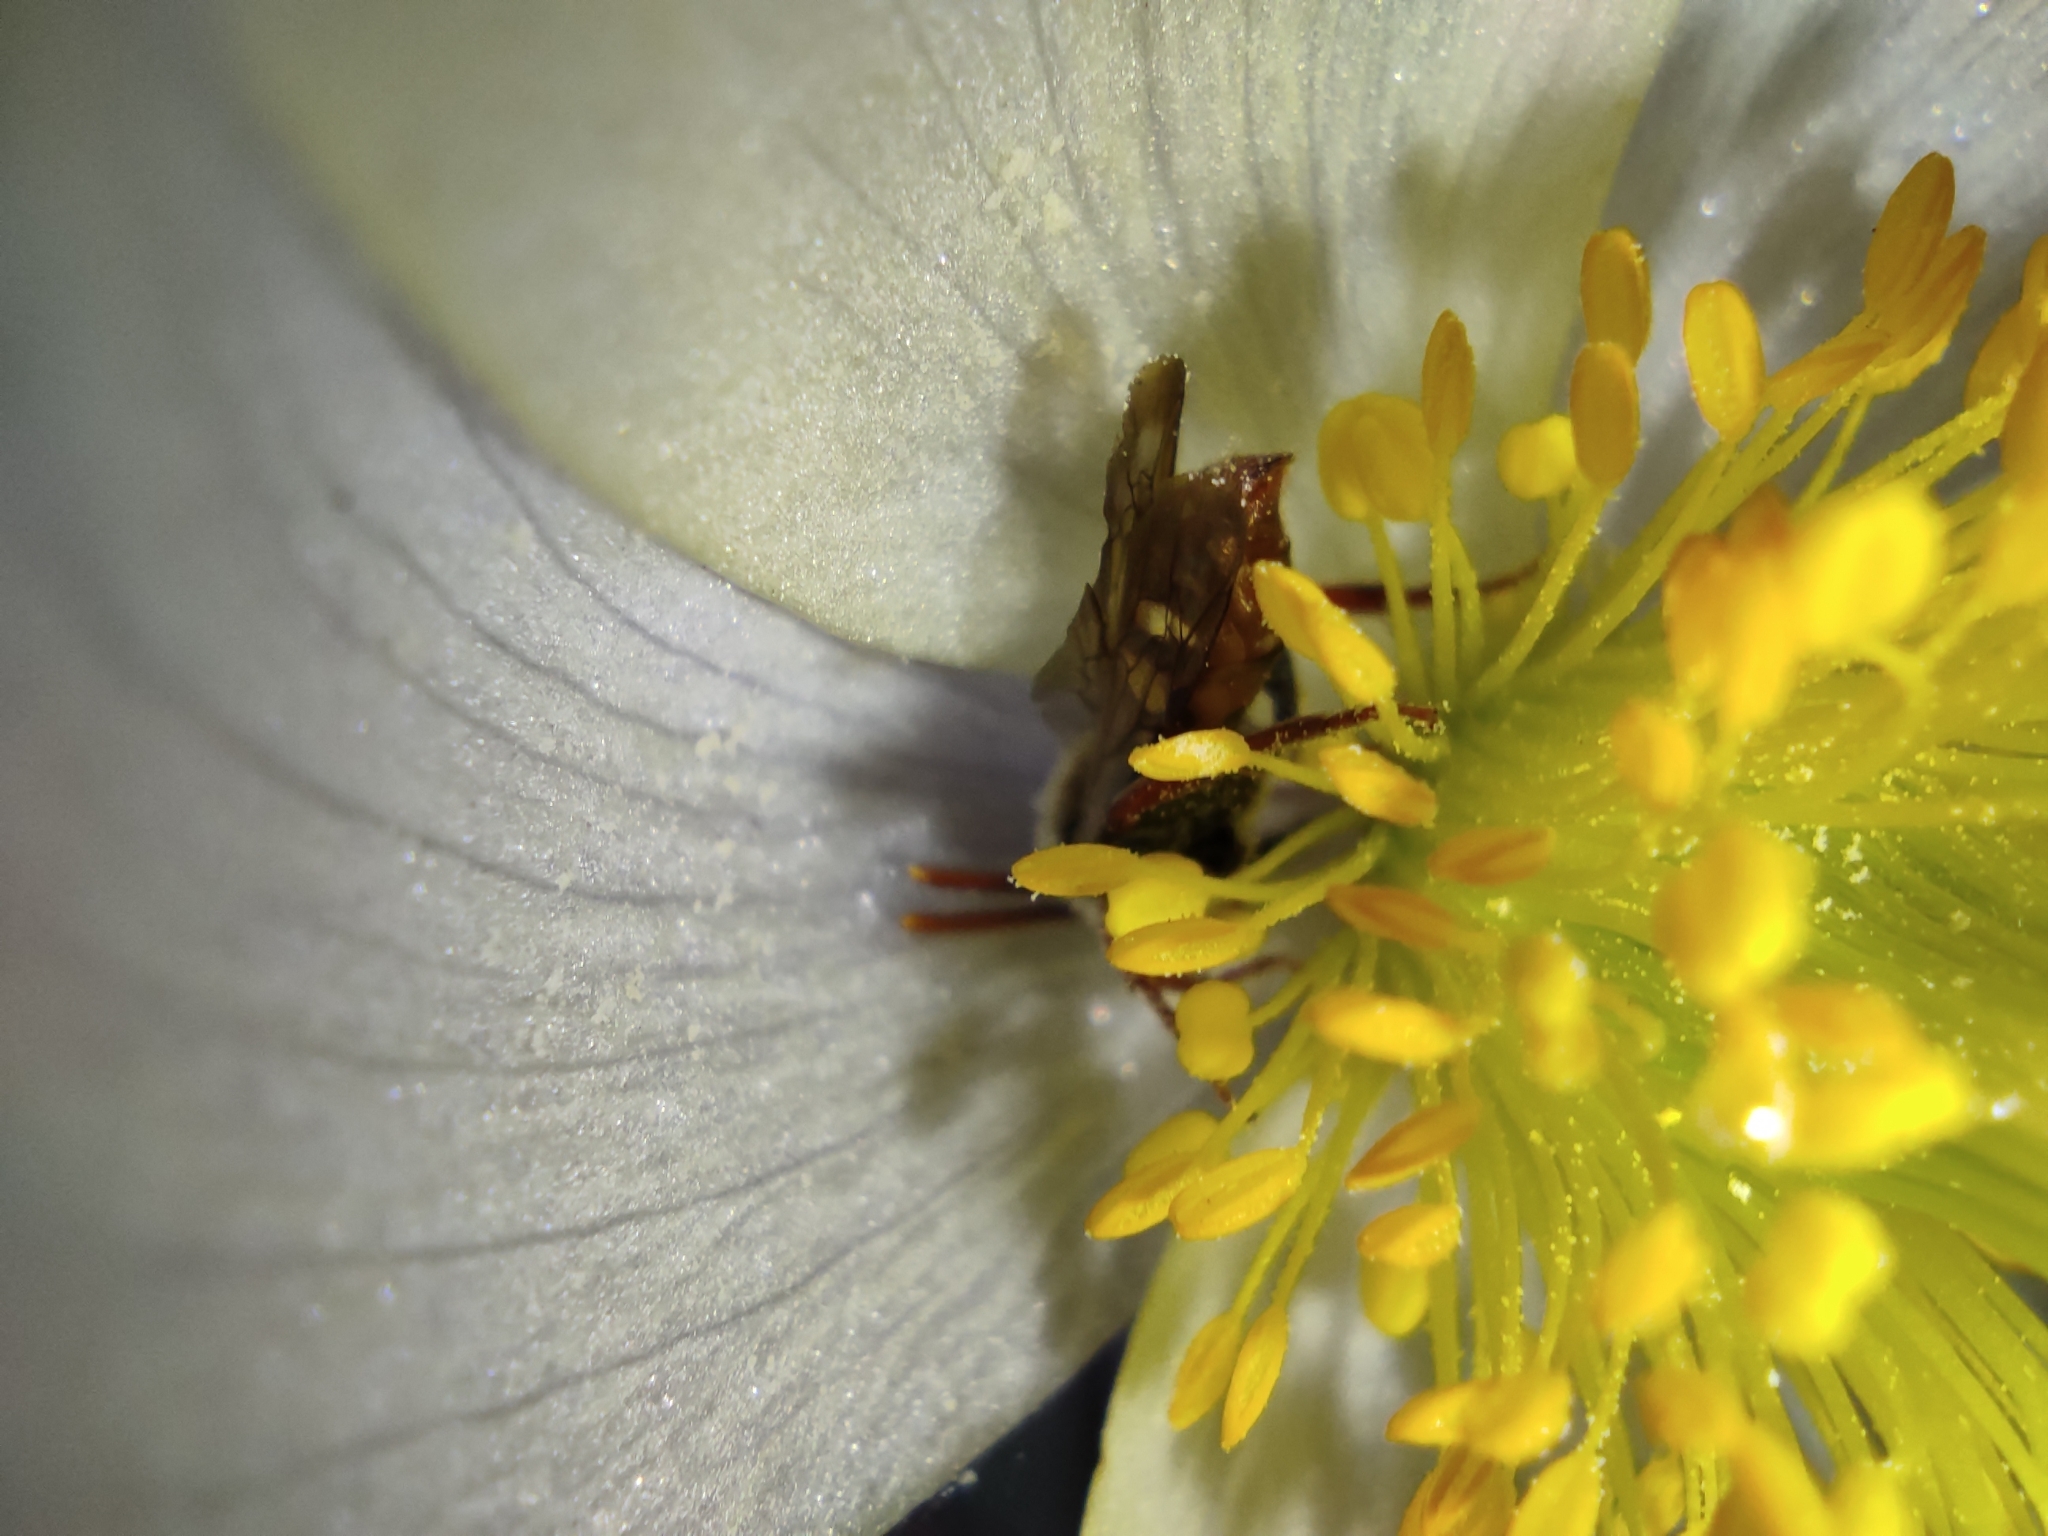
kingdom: Plantae
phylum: Tracheophyta
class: Magnoliopsida
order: Ranunculales
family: Ranunculaceae
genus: Pulsatilla
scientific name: Pulsatilla patens
